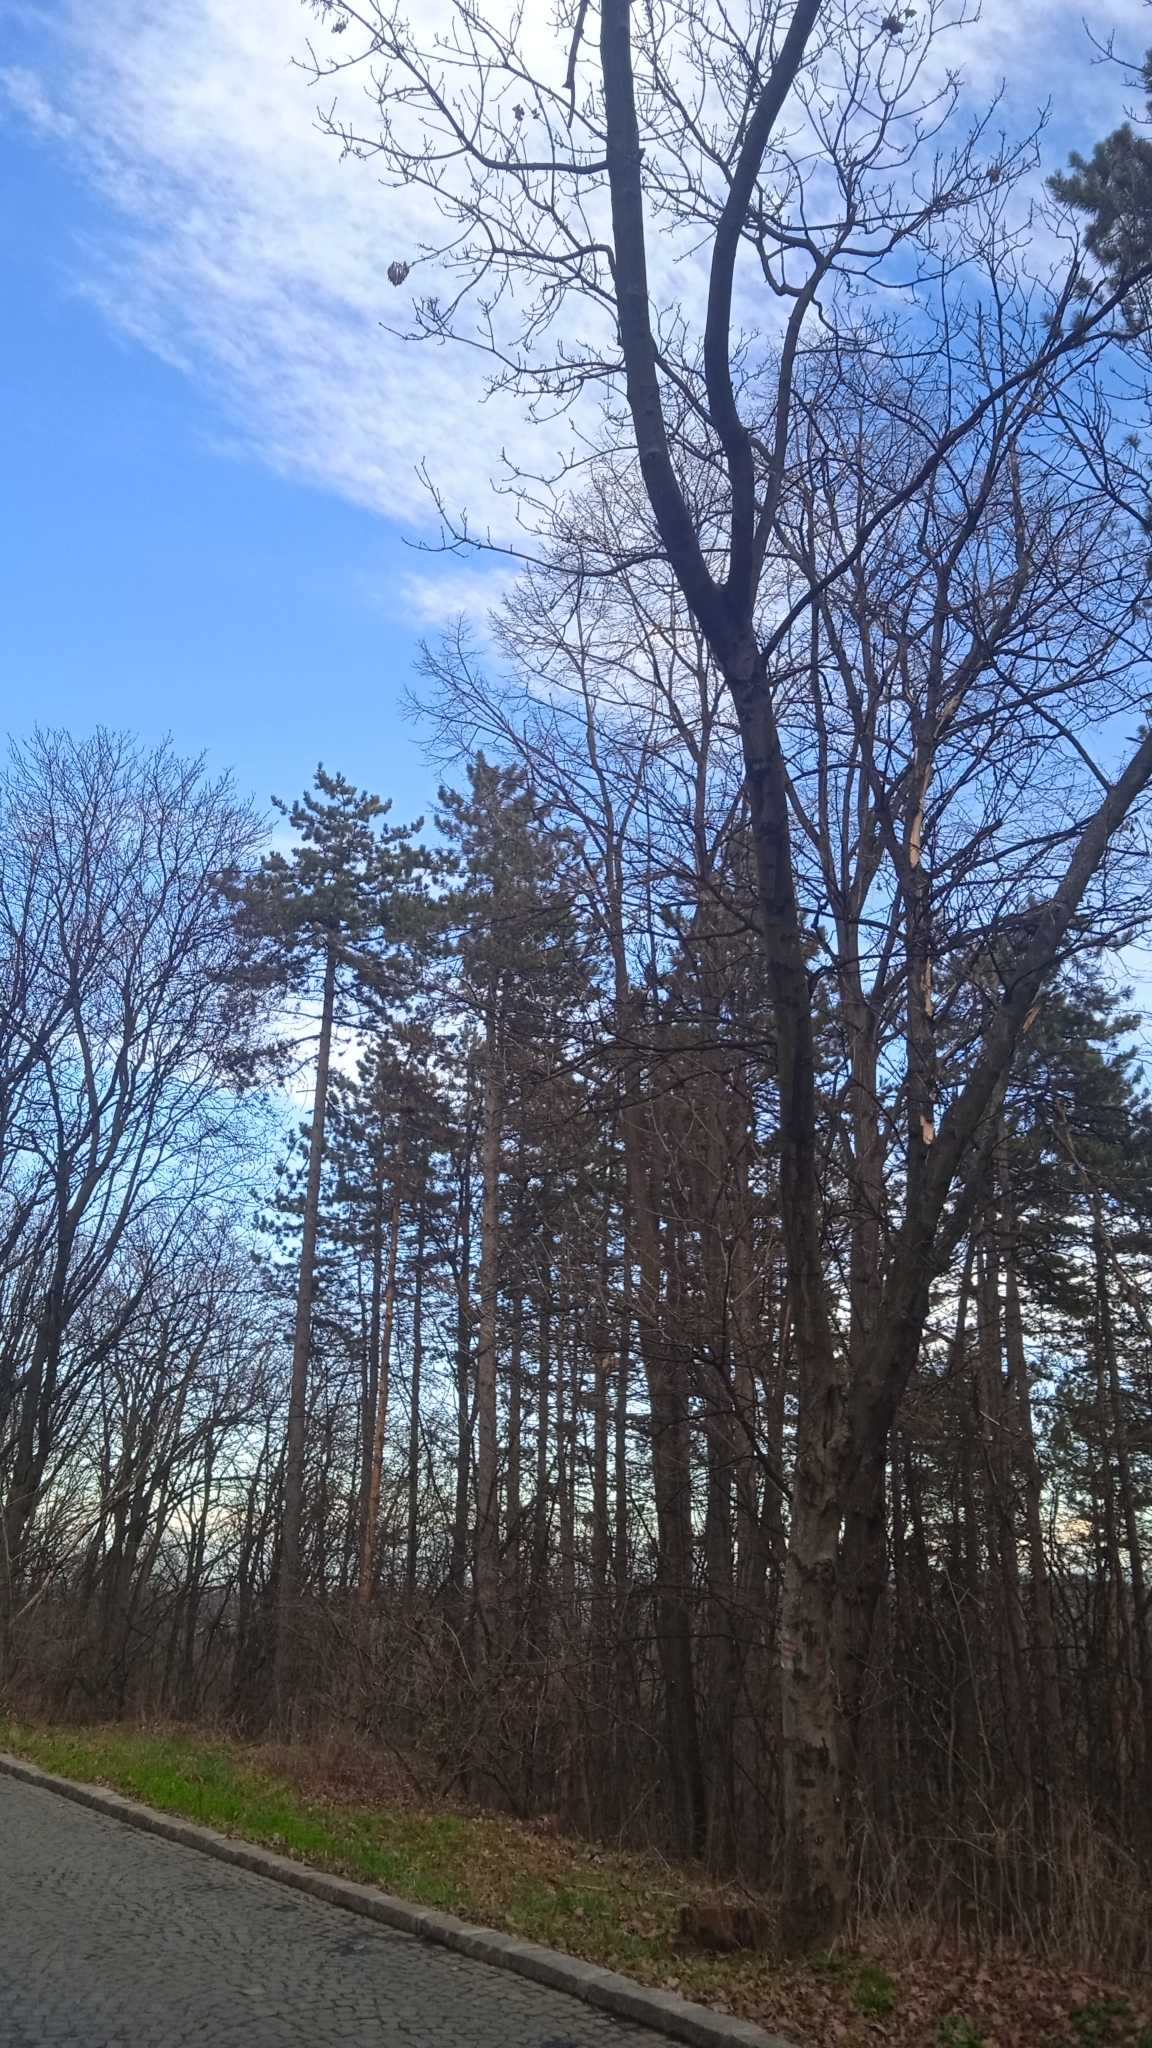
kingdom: Plantae
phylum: Tracheophyta
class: Pinopsida
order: Pinales
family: Pinaceae
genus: Pinus
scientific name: Pinus nigra
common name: Austrian pine
